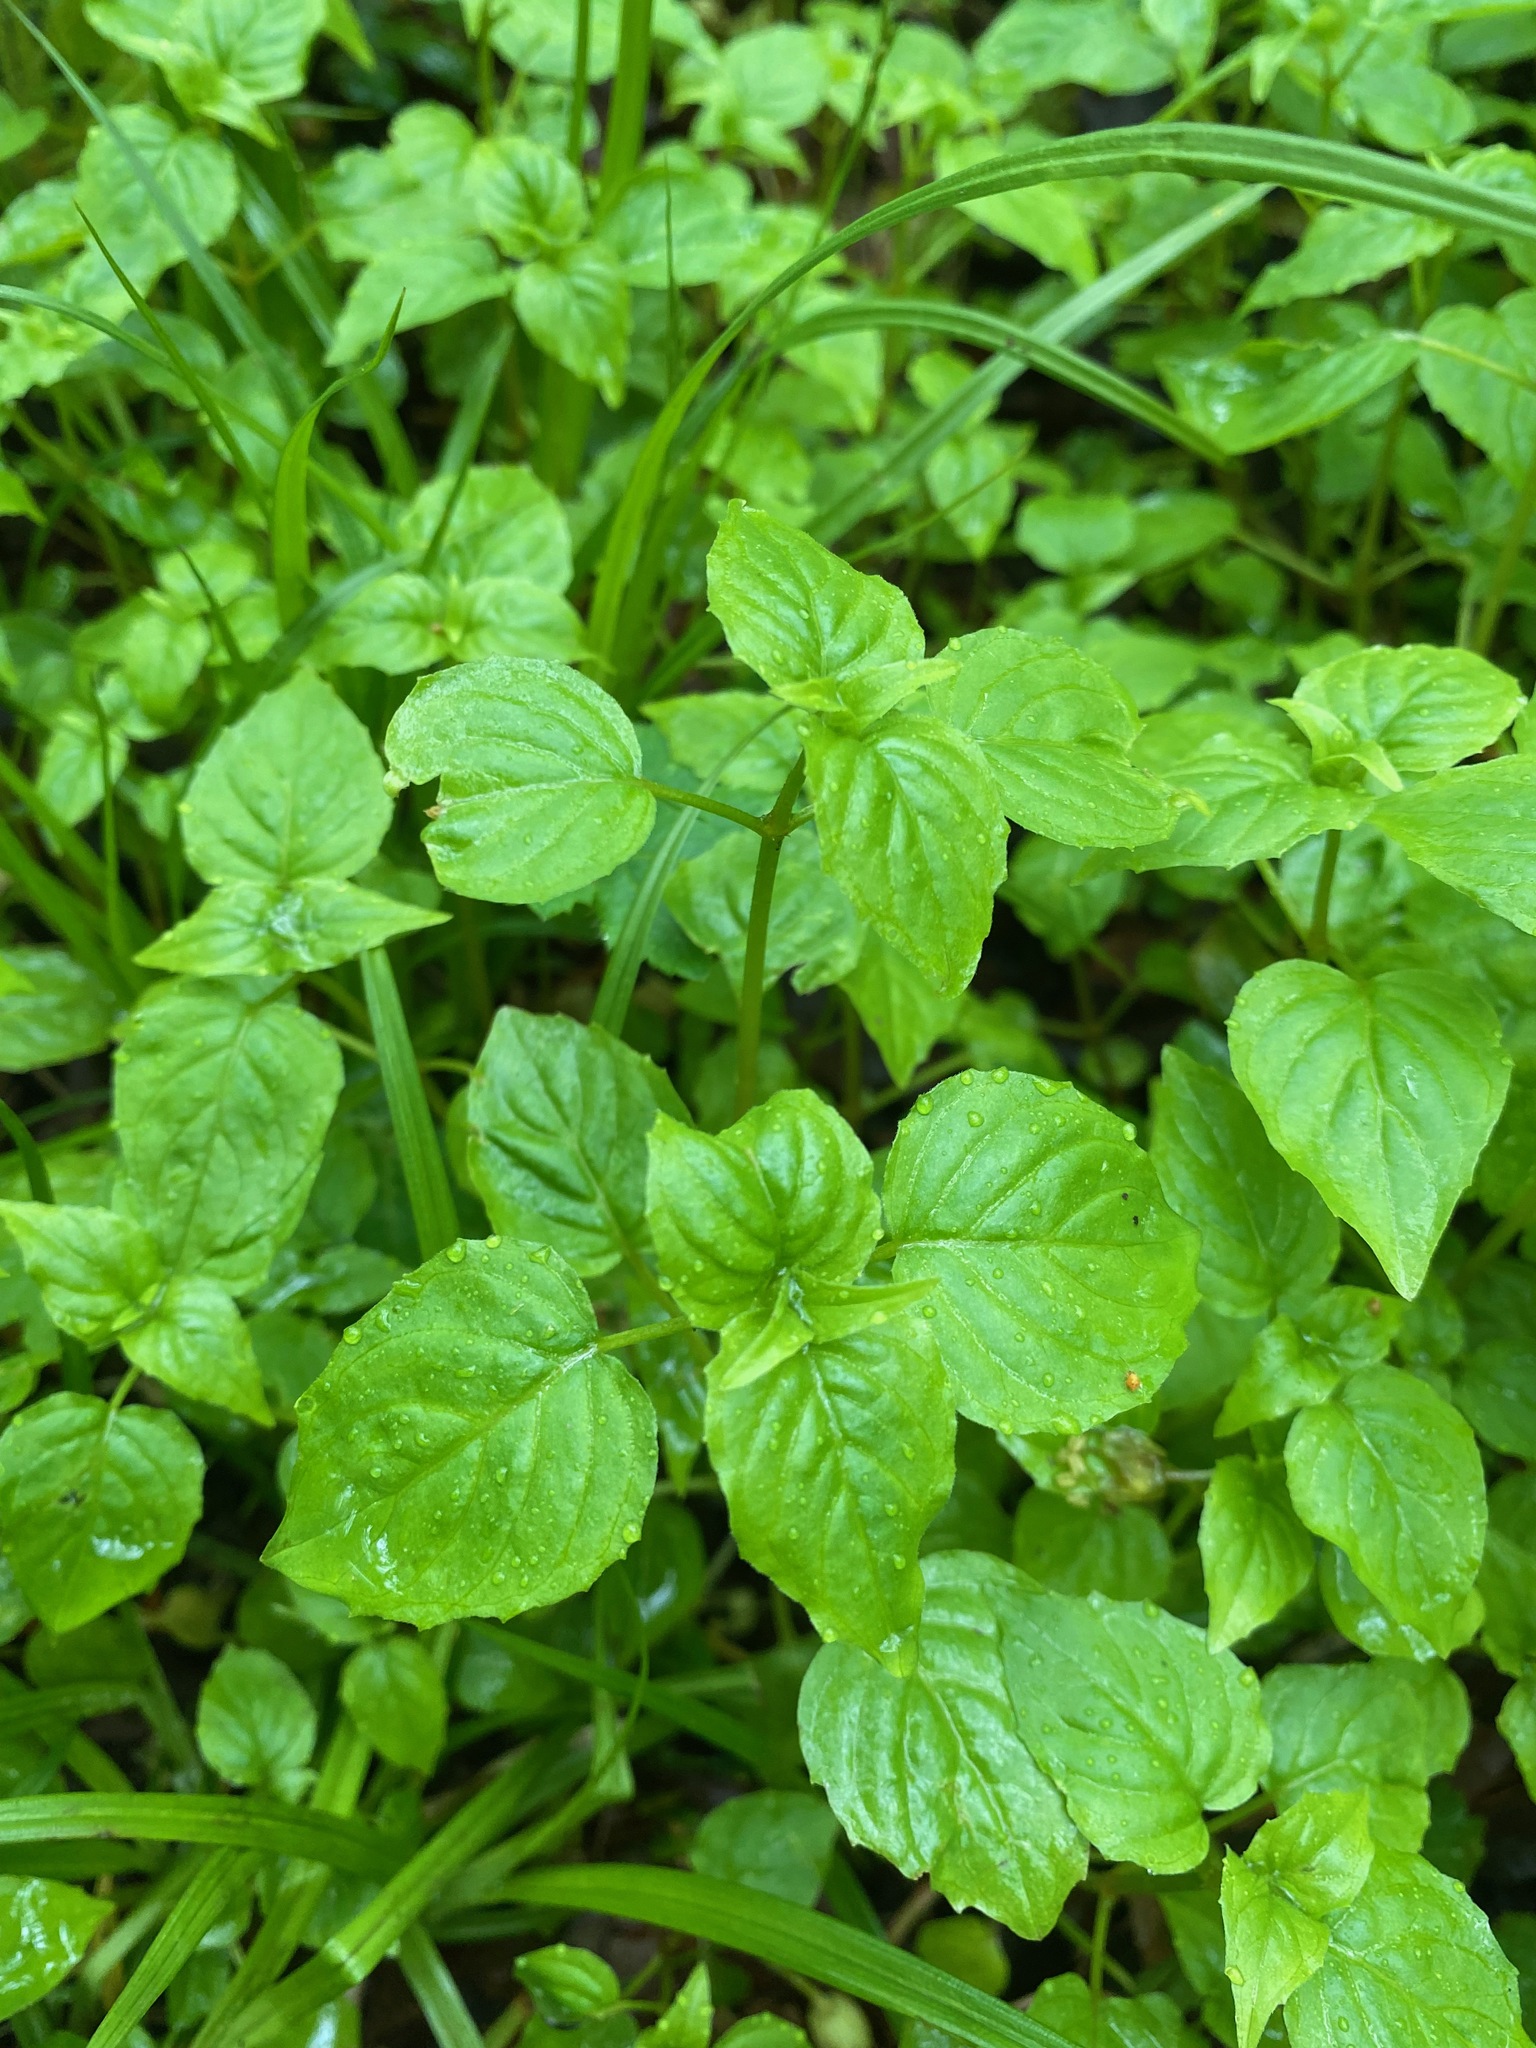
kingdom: Plantae
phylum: Tracheophyta
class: Magnoliopsida
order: Myrtales
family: Onagraceae
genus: Circaea
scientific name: Circaea alpina
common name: Alpine enchanter's-nightshade
